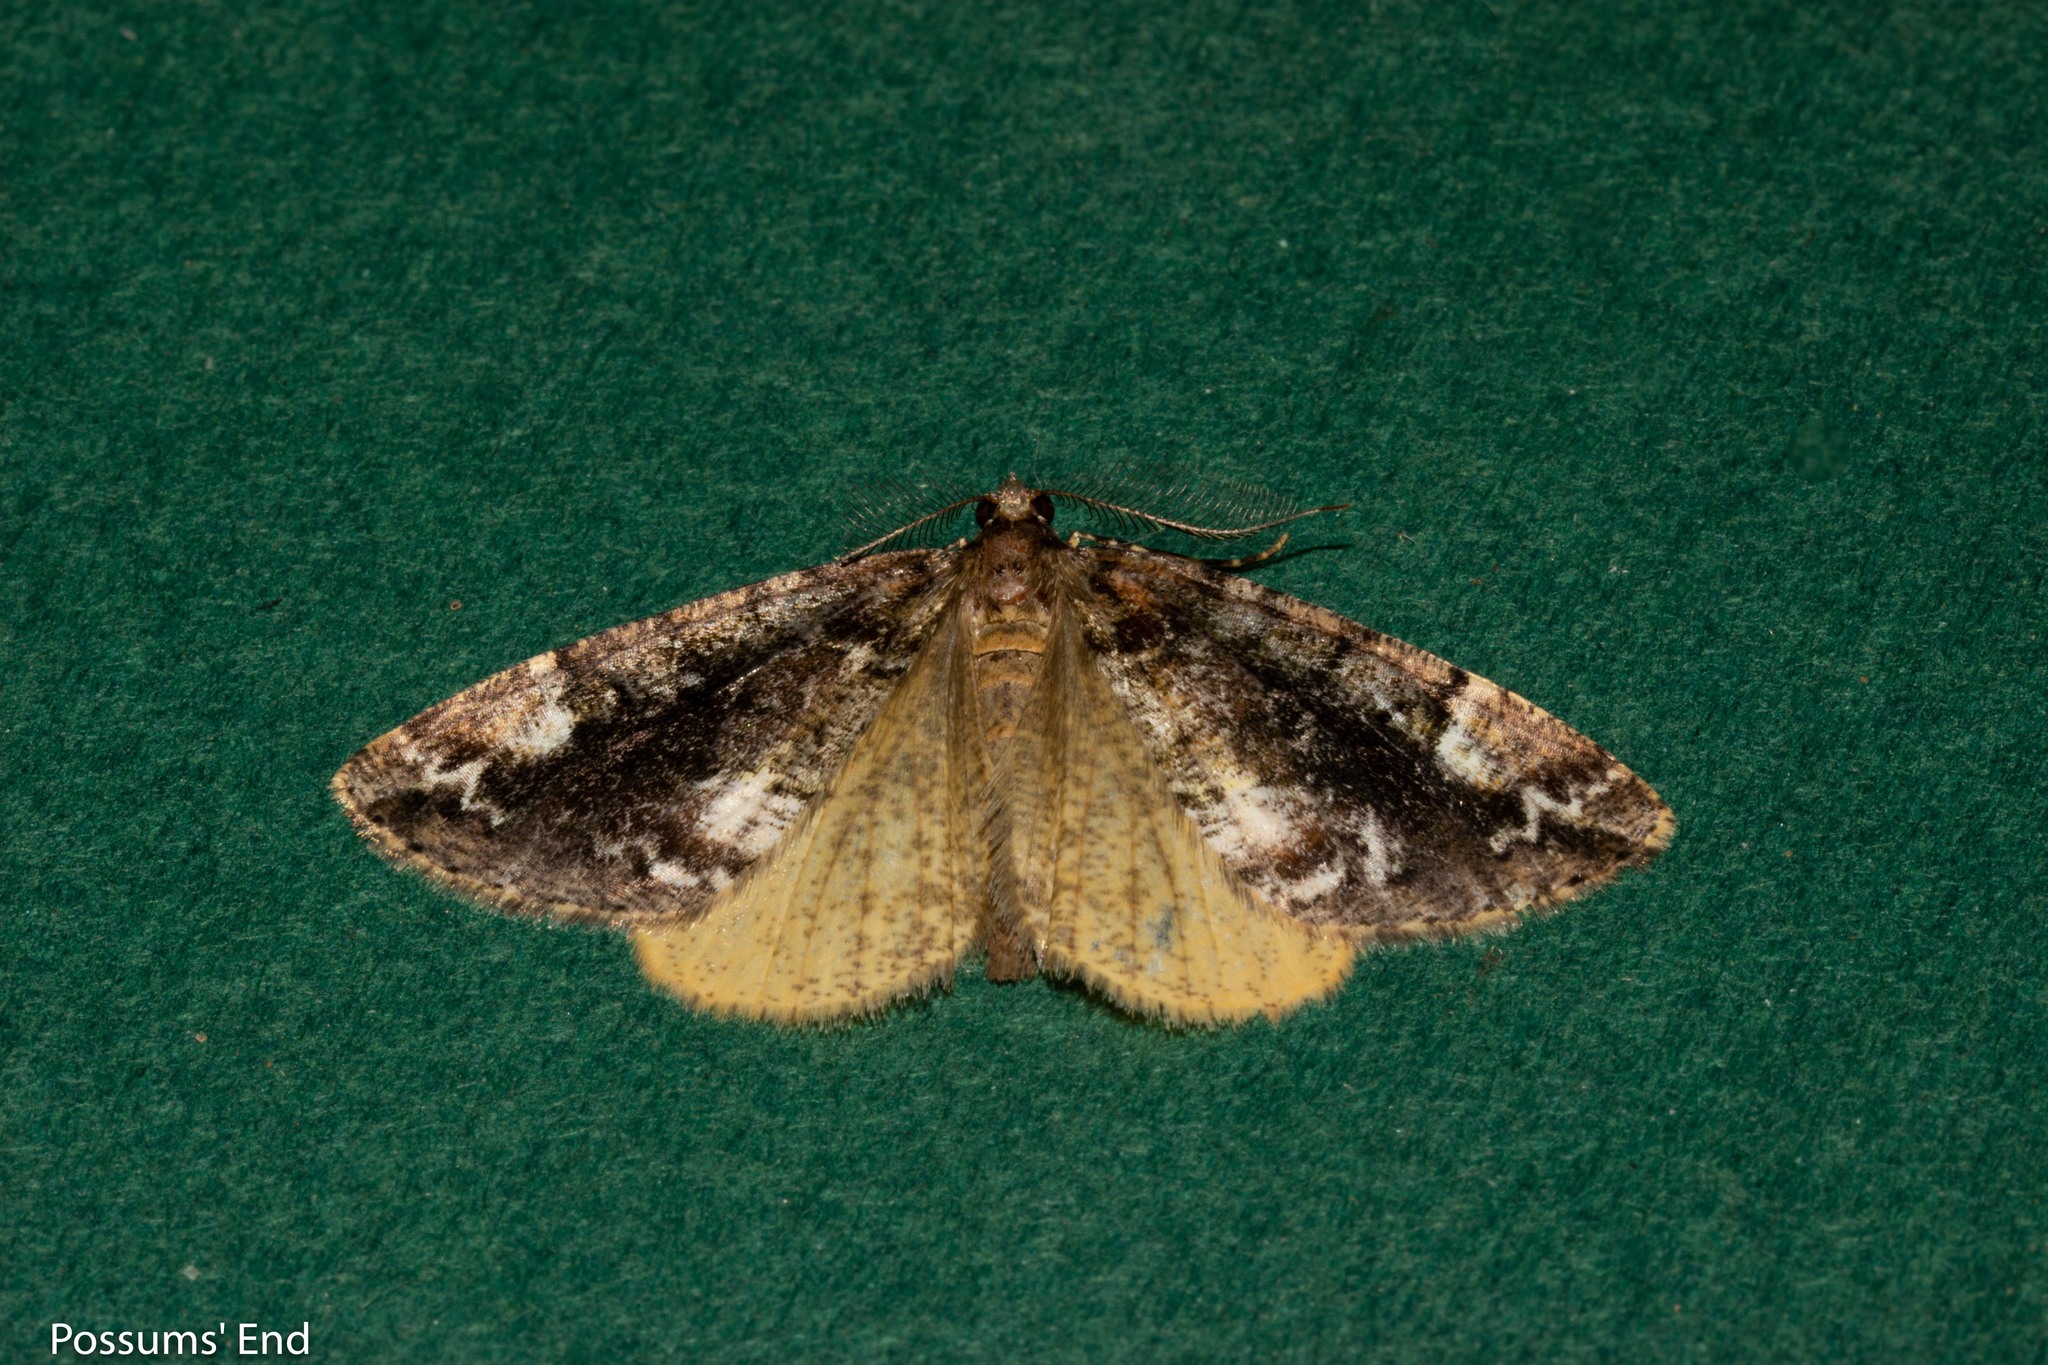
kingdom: Animalia
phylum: Arthropoda
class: Insecta
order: Lepidoptera
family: Geometridae
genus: Pseudocoremia
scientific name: Pseudocoremia productata
